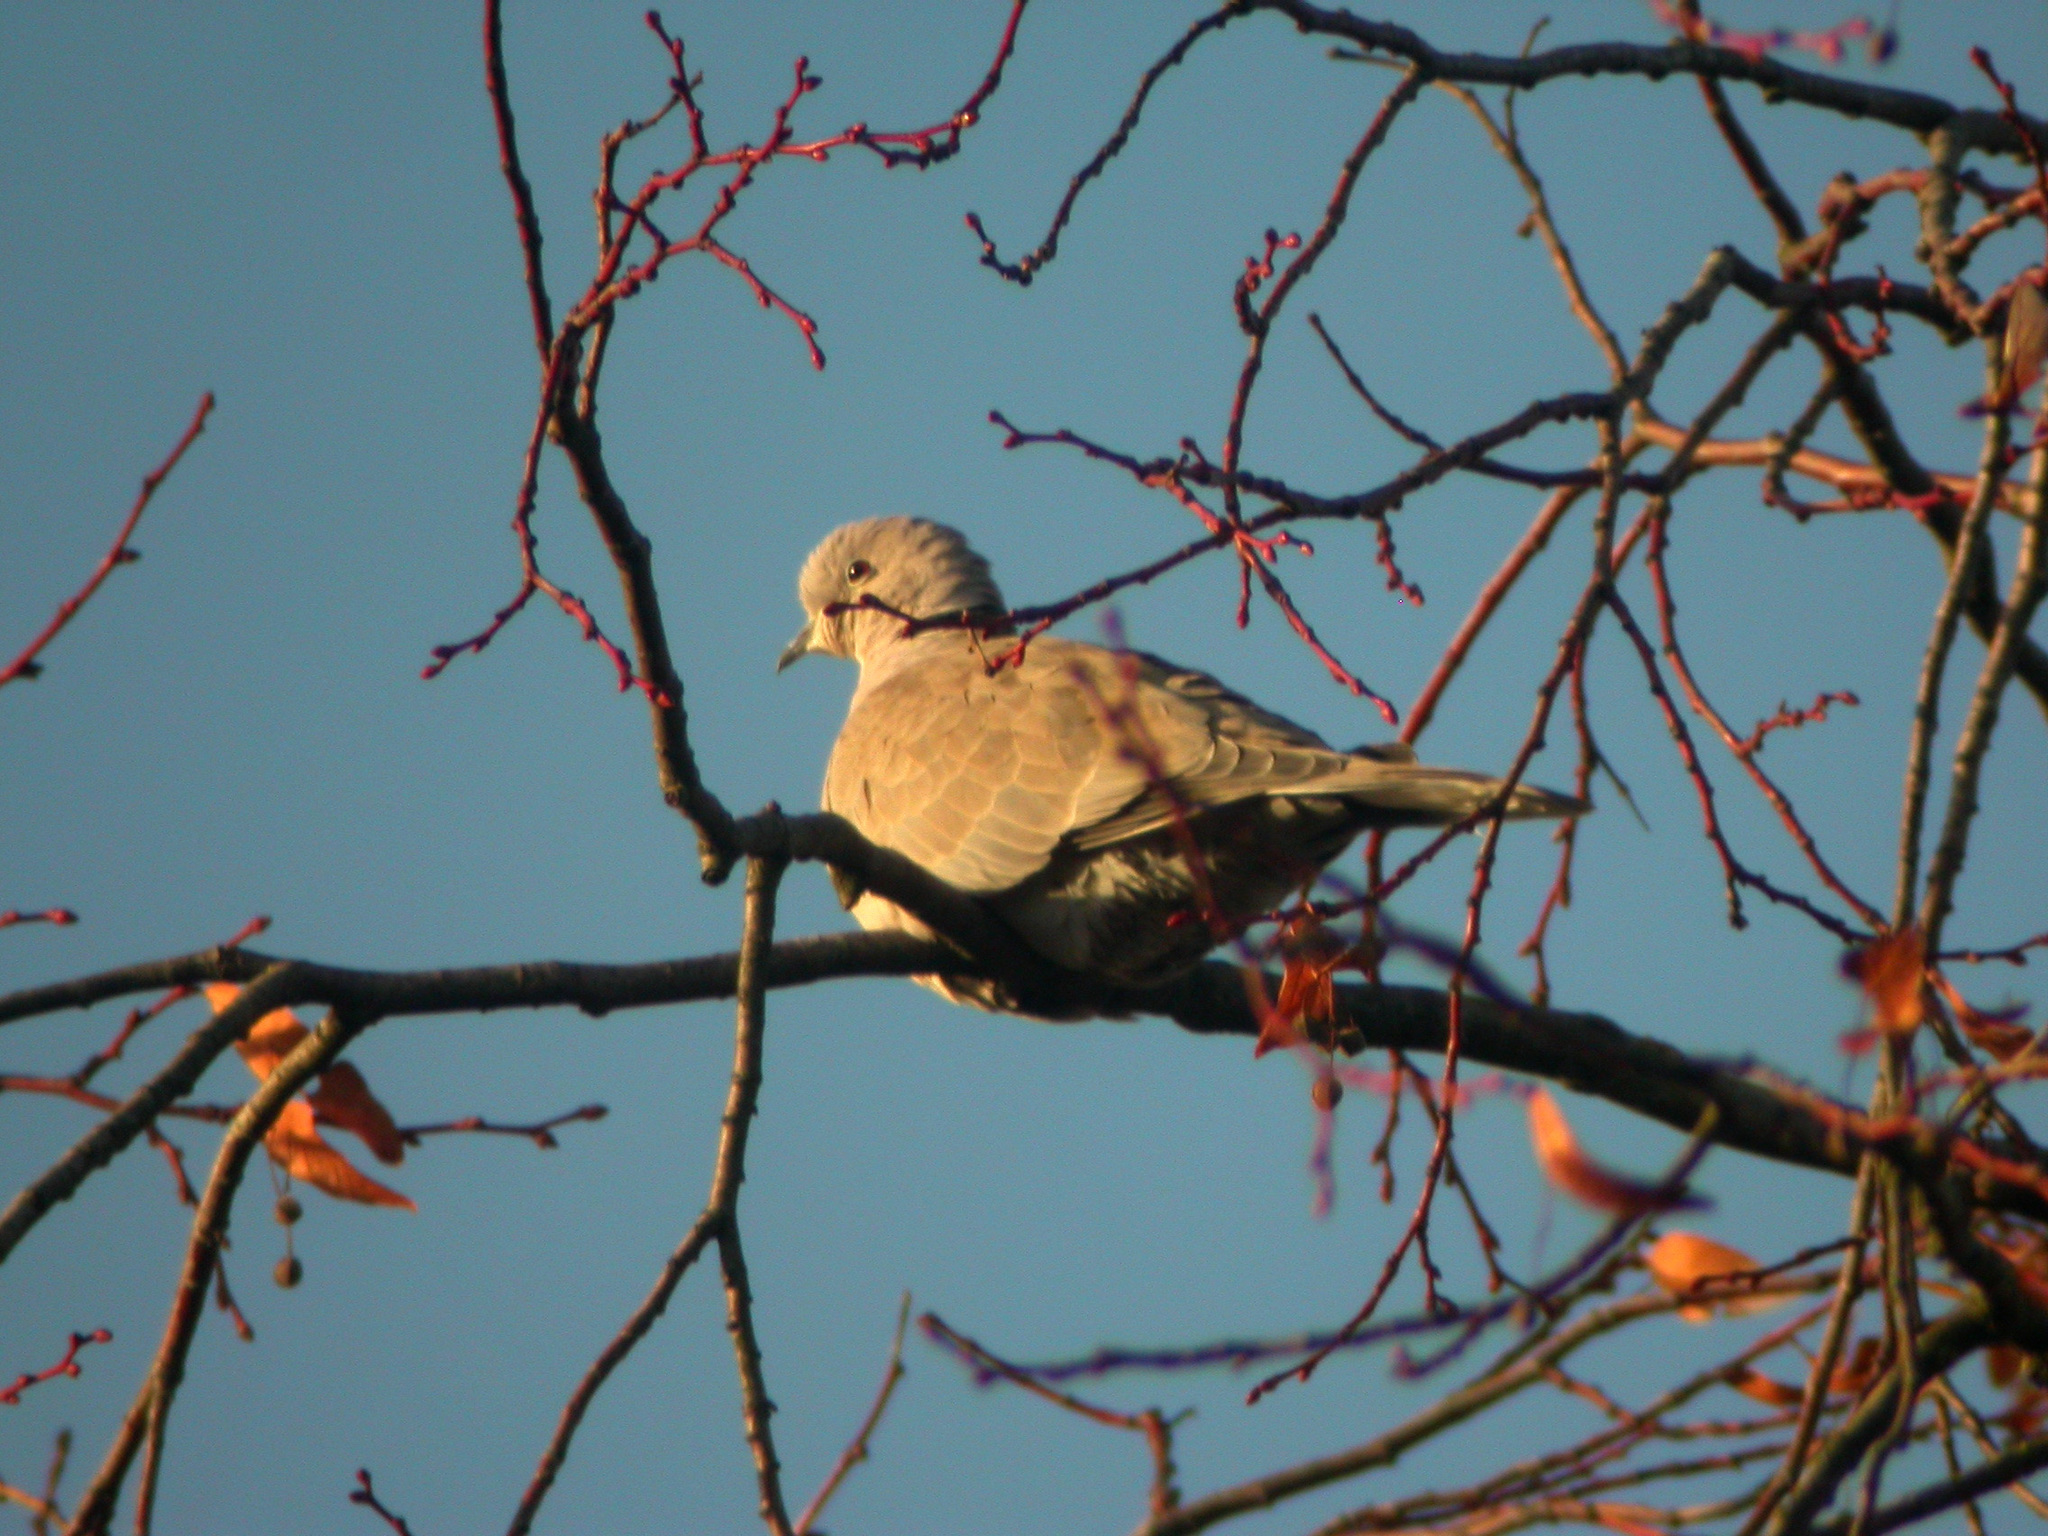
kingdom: Animalia
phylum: Chordata
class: Aves
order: Columbiformes
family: Columbidae
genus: Streptopelia
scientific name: Streptopelia decaocto
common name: Eurasian collared dove
